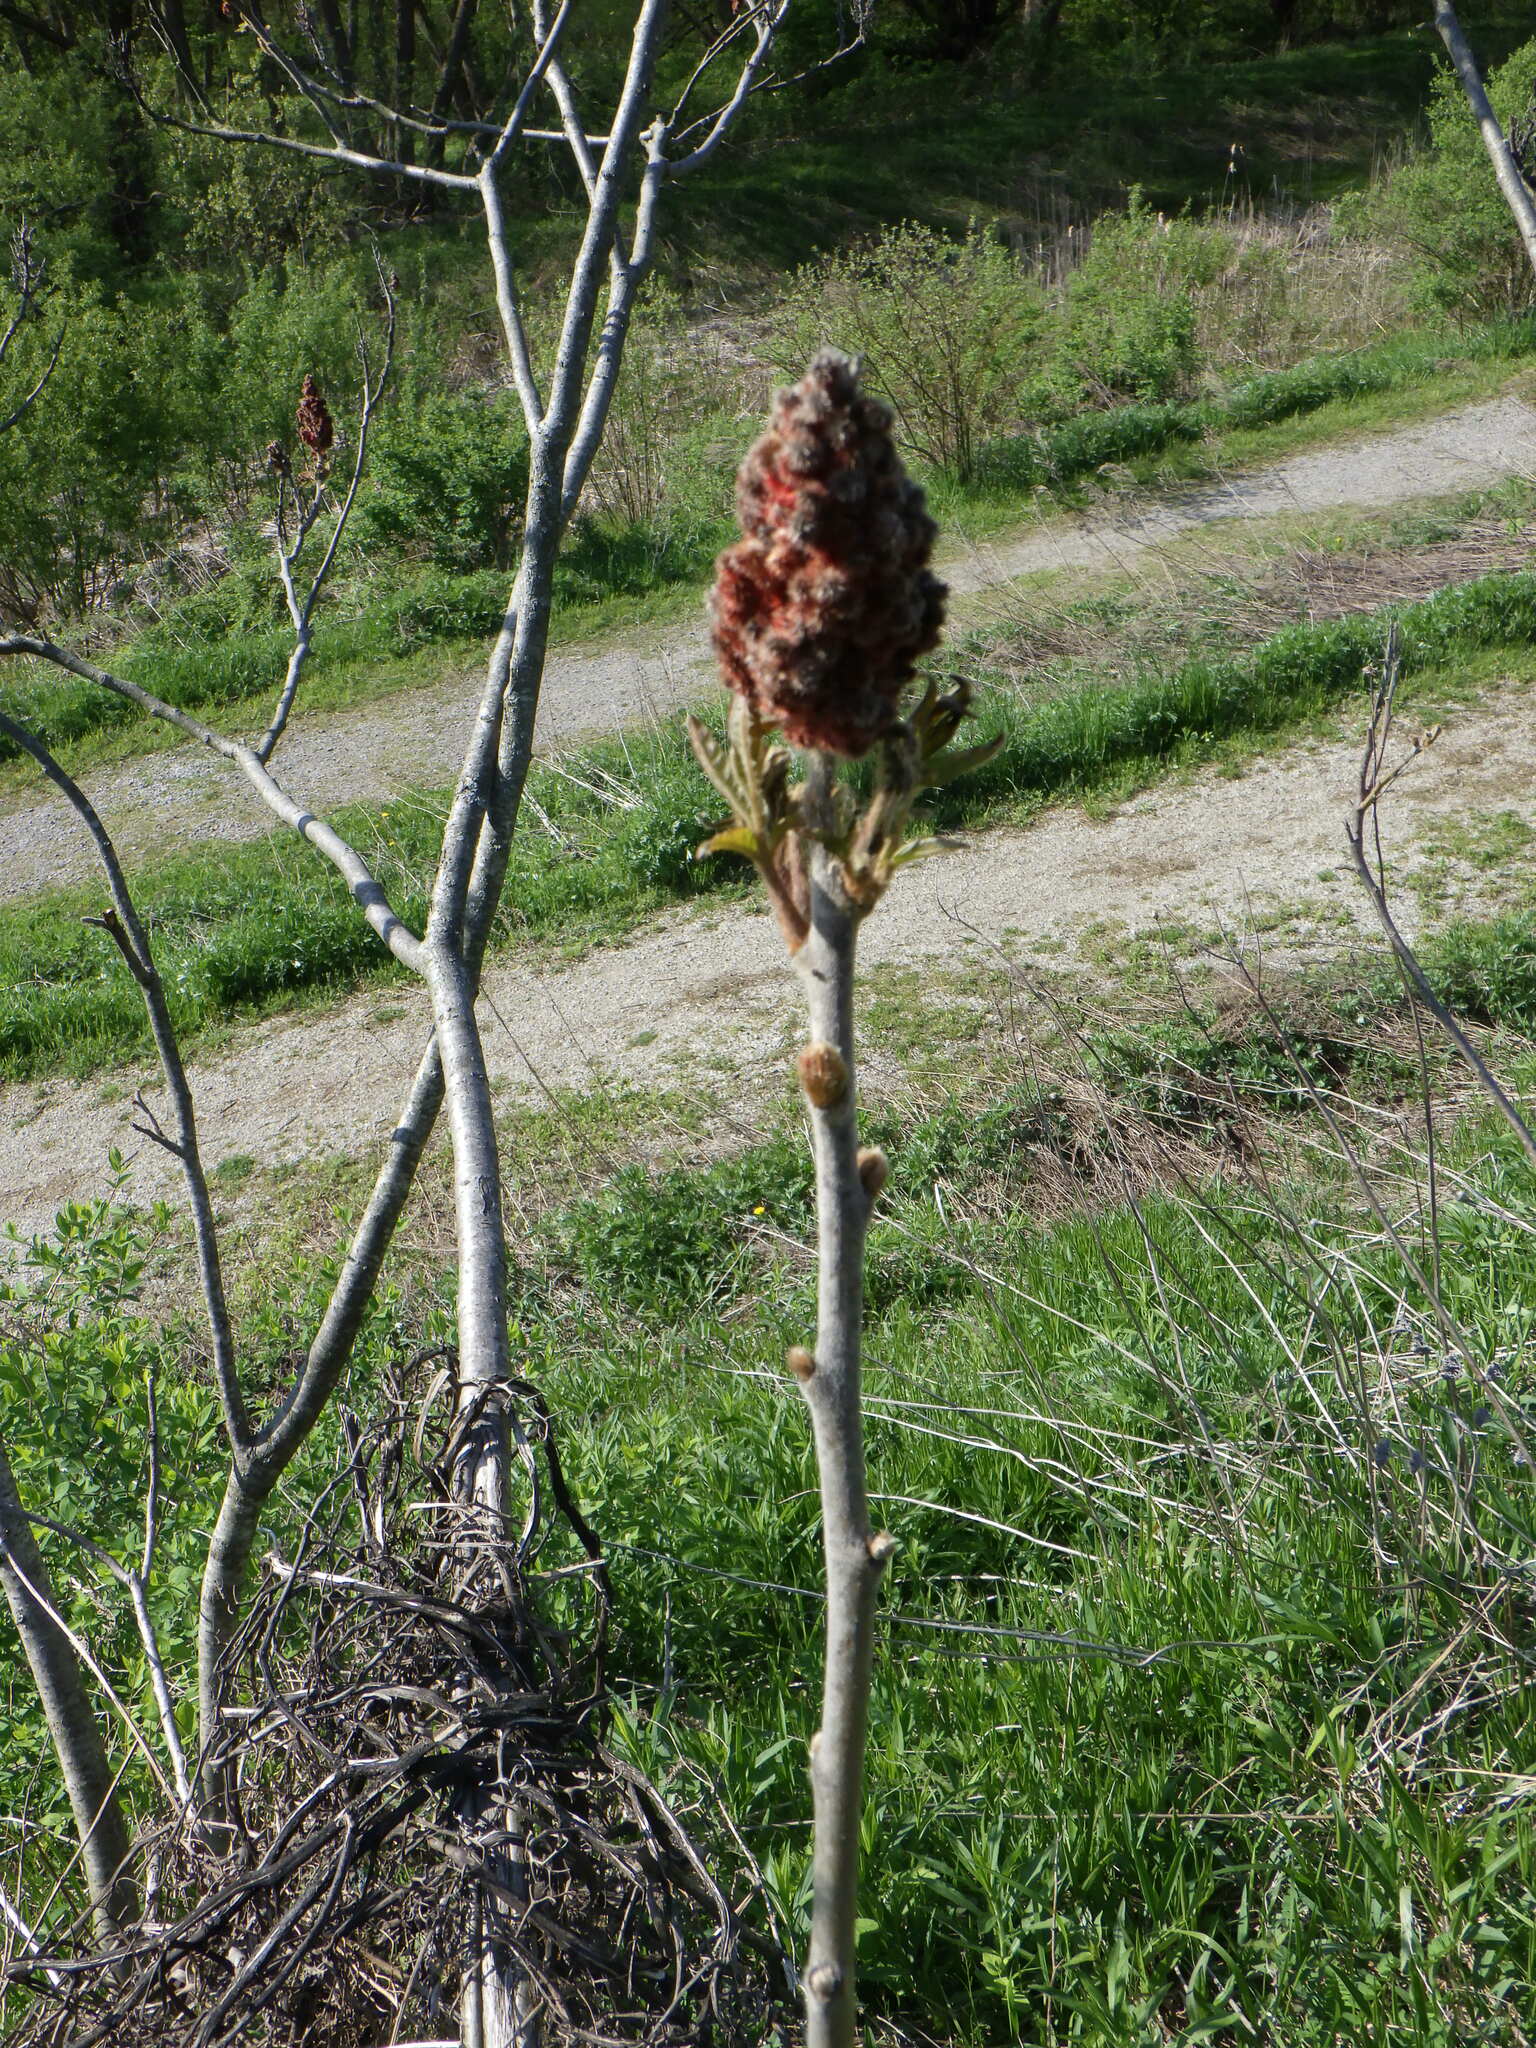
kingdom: Plantae
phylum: Tracheophyta
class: Magnoliopsida
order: Sapindales
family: Anacardiaceae
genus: Rhus
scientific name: Rhus typhina
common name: Staghorn sumac
